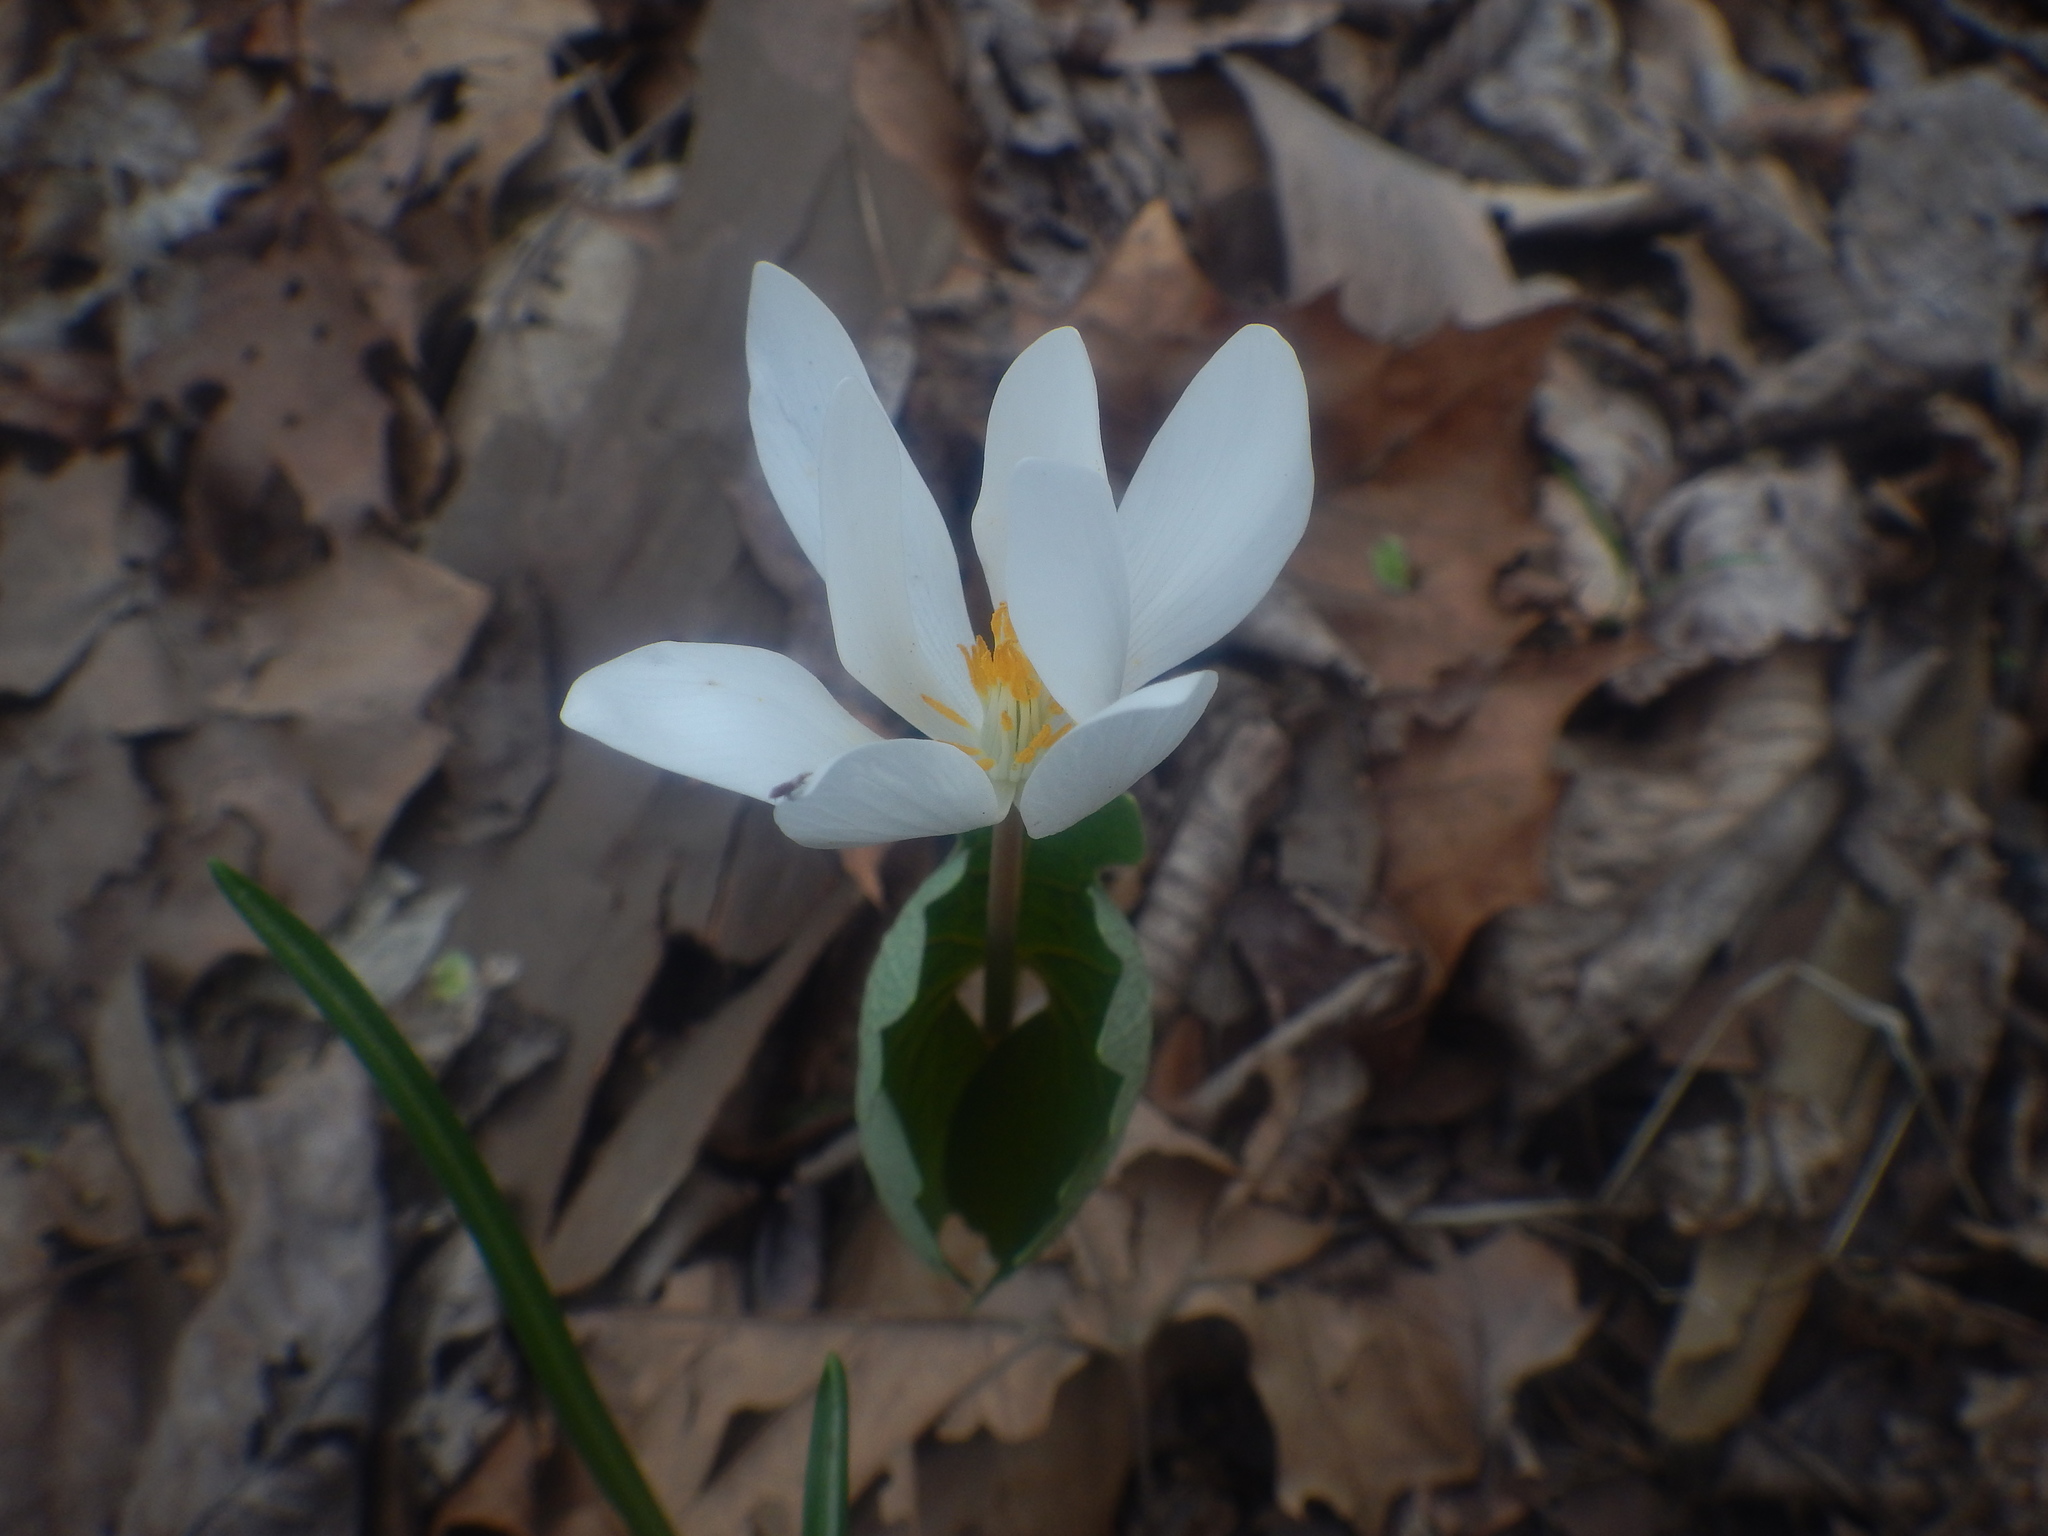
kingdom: Plantae
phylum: Tracheophyta
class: Magnoliopsida
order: Ranunculales
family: Papaveraceae
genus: Sanguinaria
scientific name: Sanguinaria canadensis
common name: Bloodroot
